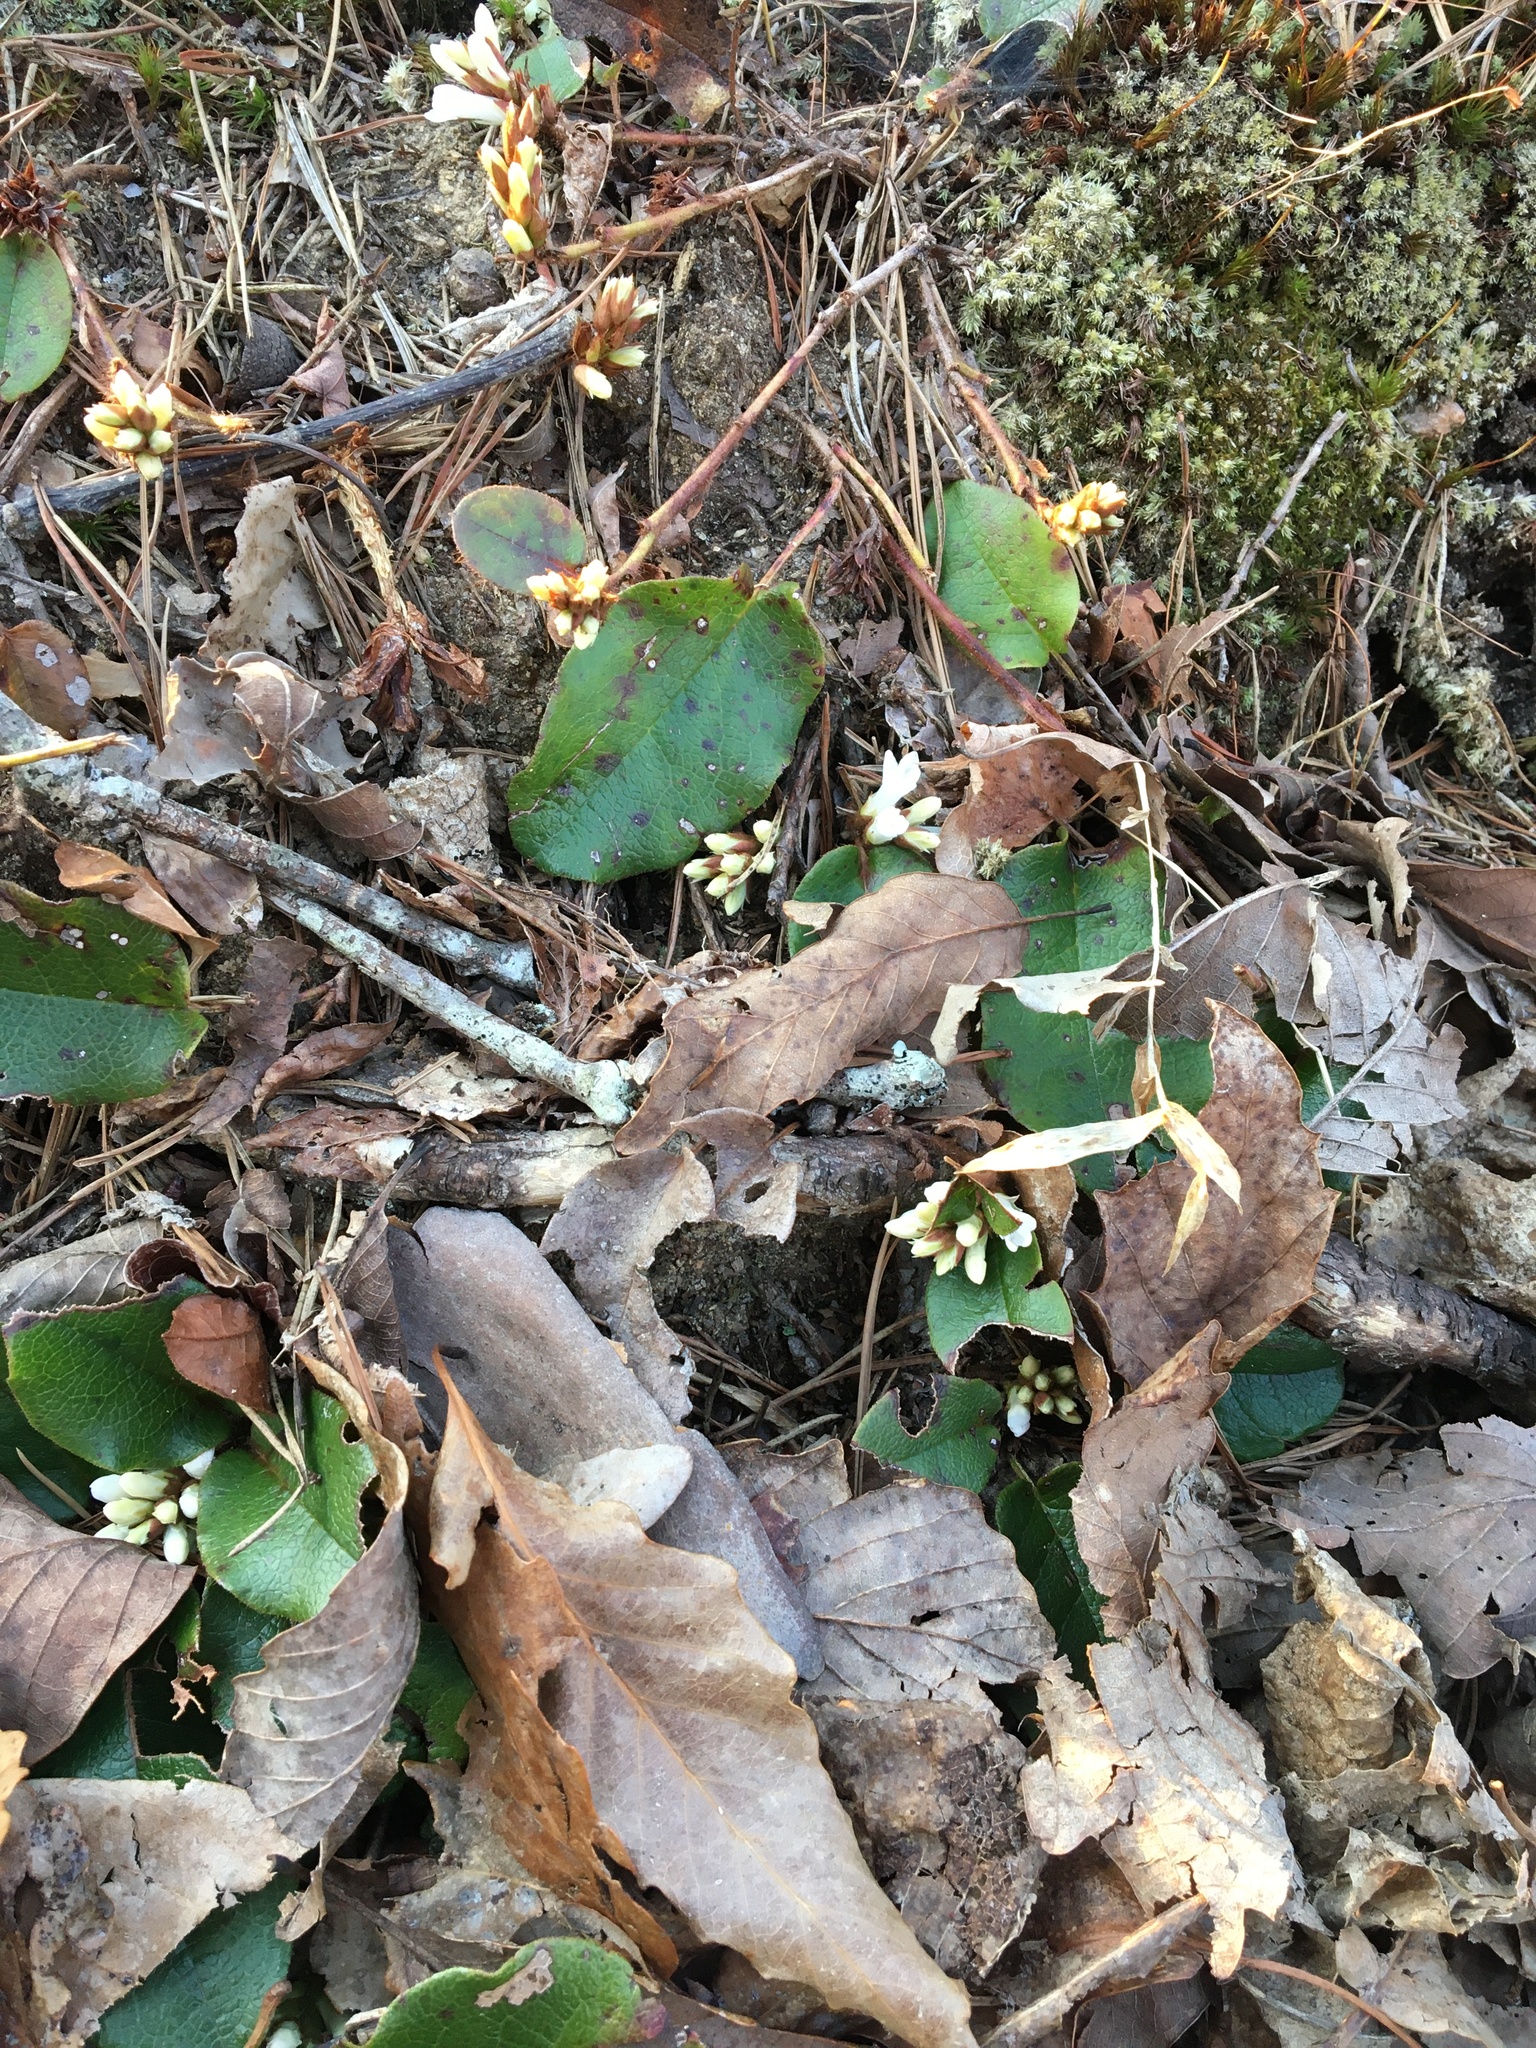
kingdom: Plantae
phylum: Tracheophyta
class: Magnoliopsida
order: Ericales
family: Ericaceae
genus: Epigaea
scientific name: Epigaea repens
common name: Gravelroot
